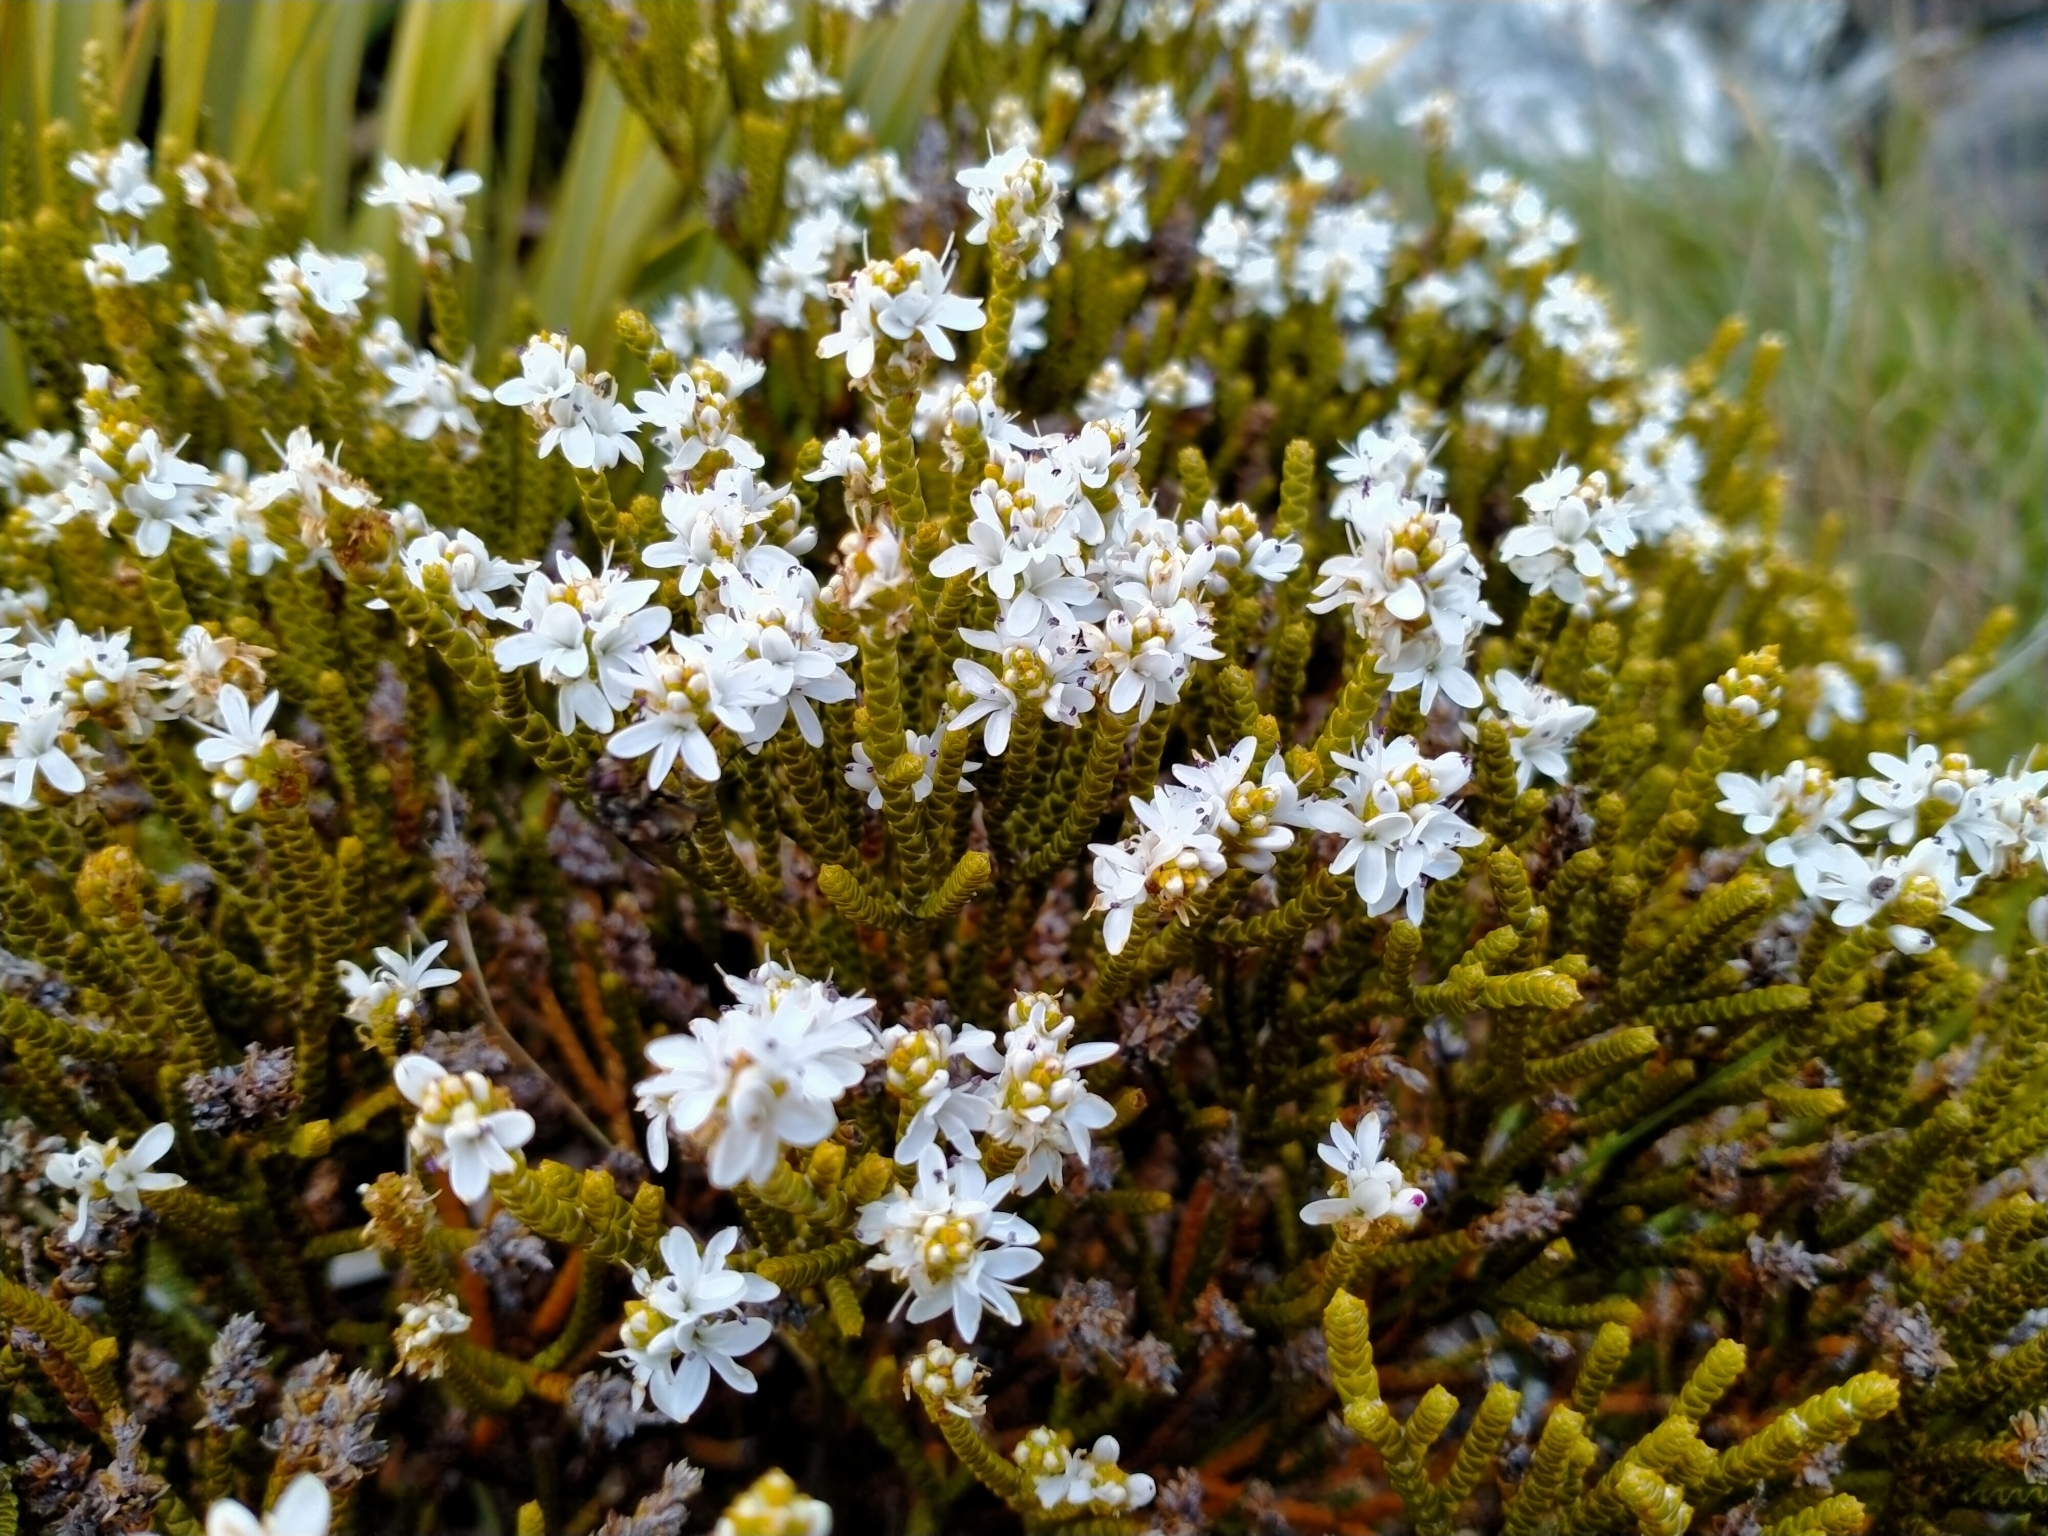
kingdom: Plantae
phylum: Tracheophyta
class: Magnoliopsida
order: Lamiales
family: Plantaginaceae
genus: Veronica
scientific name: Veronica lycopodioides
